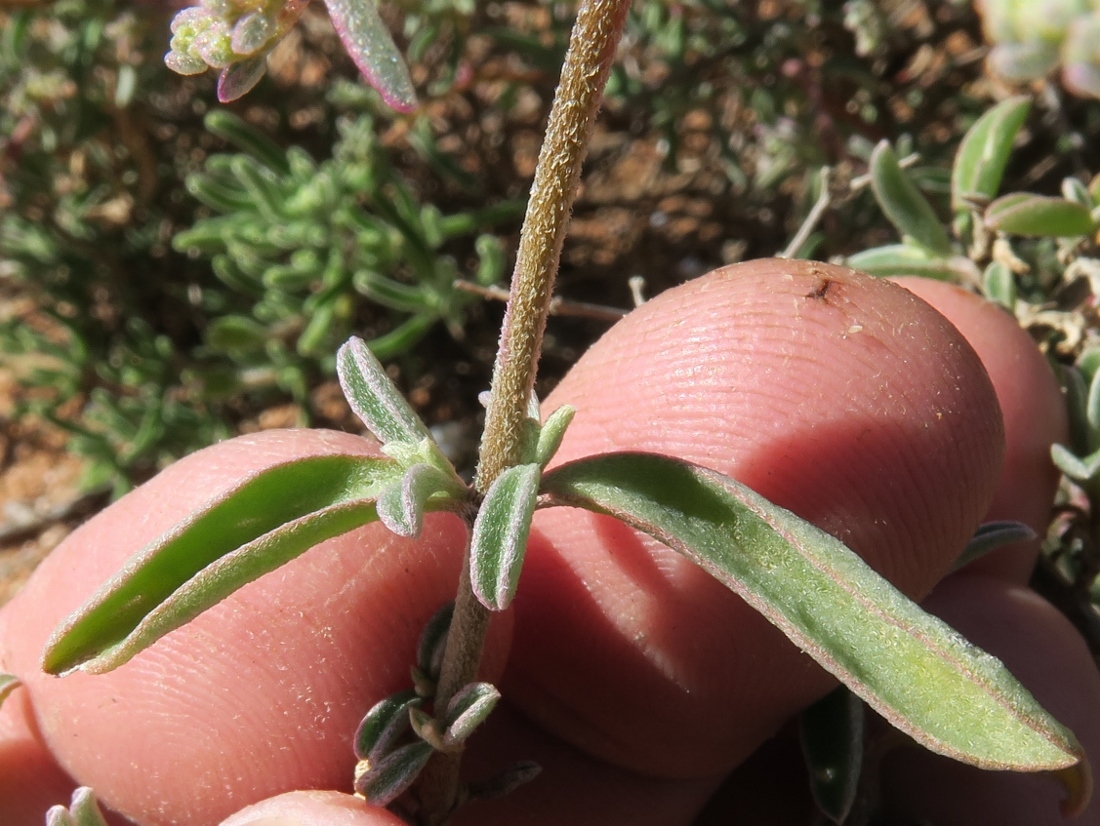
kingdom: Plantae
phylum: Tracheophyta
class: Magnoliopsida
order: Caryophyllales
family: Aizoaceae
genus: Aizoon
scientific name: Aizoon sarcophyllum
